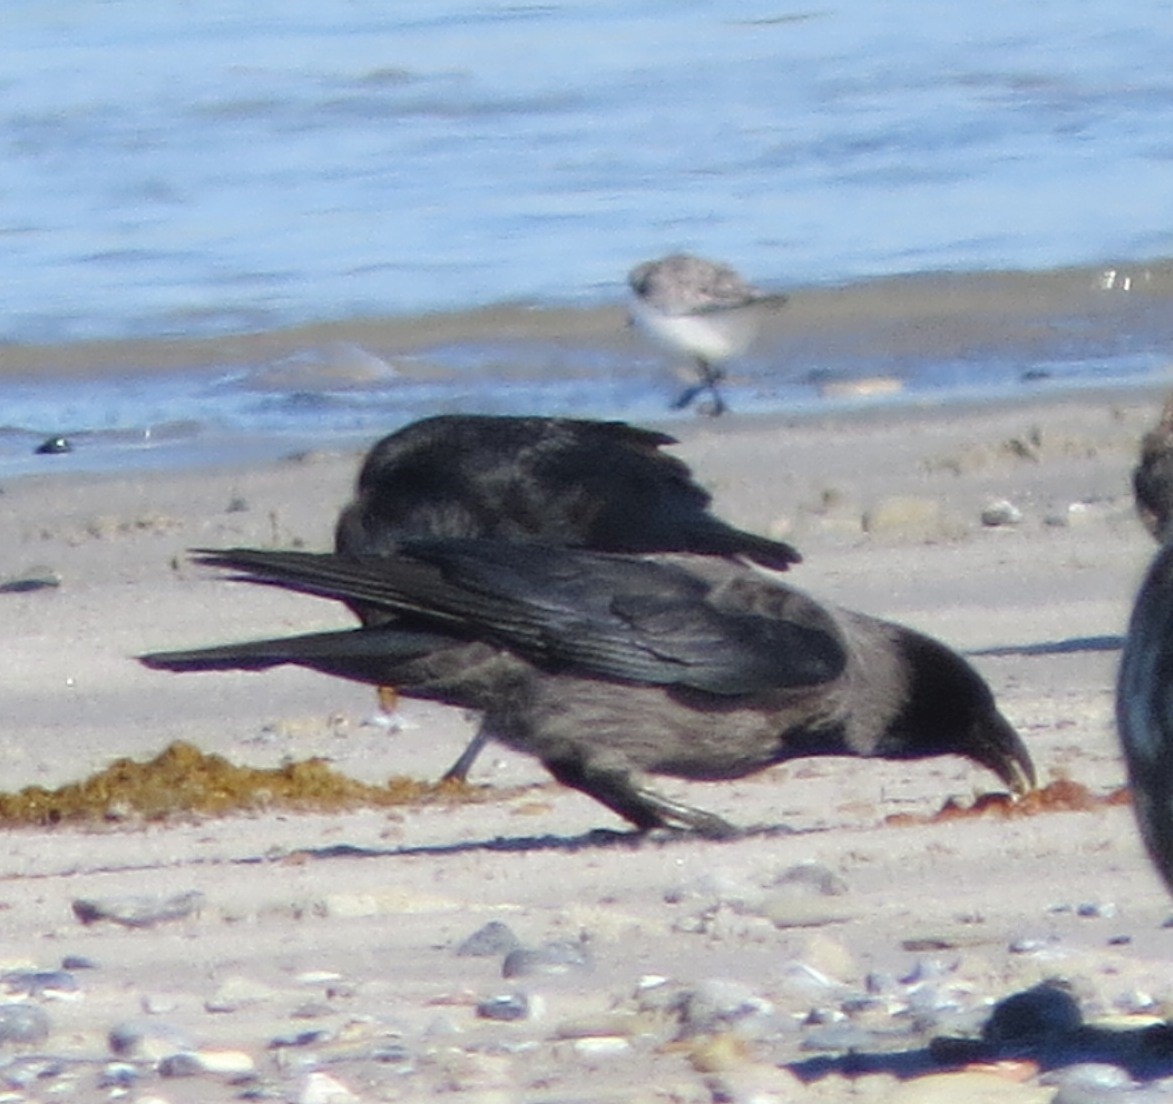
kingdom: Animalia
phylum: Chordata
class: Aves
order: Passeriformes
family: Corvidae
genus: Corvus
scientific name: Corvus
